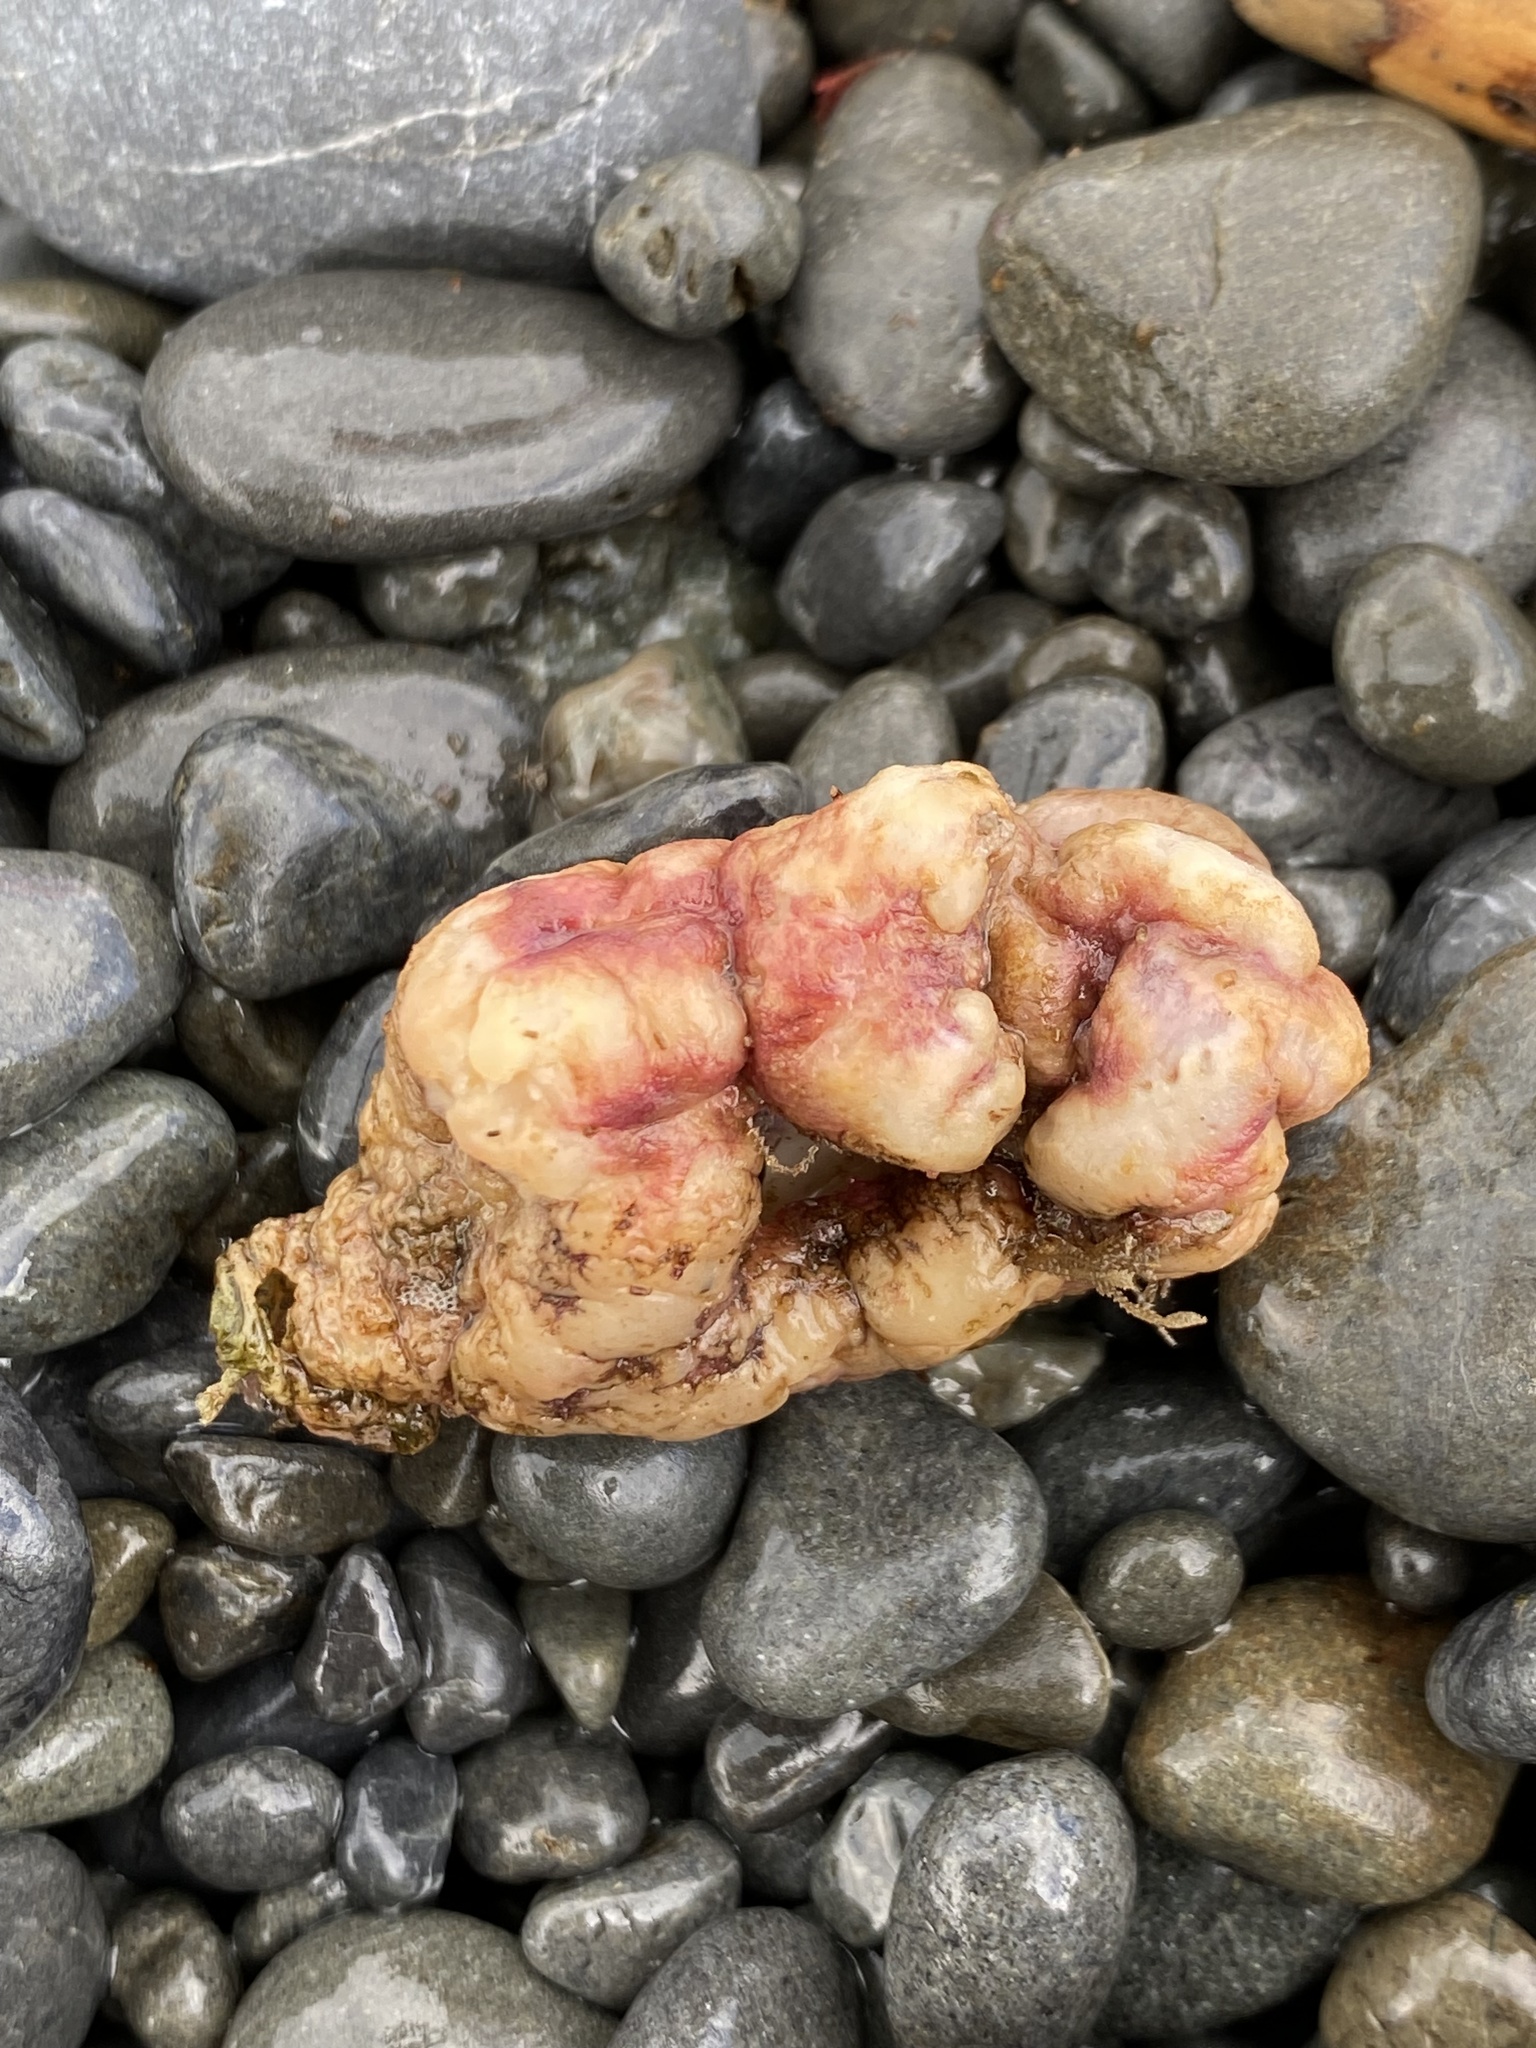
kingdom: Animalia
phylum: Chordata
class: Ascidiacea
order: Stolidobranchia
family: Pyuridae
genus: Pyura
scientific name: Pyura pachydermatina
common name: Sea tulip
